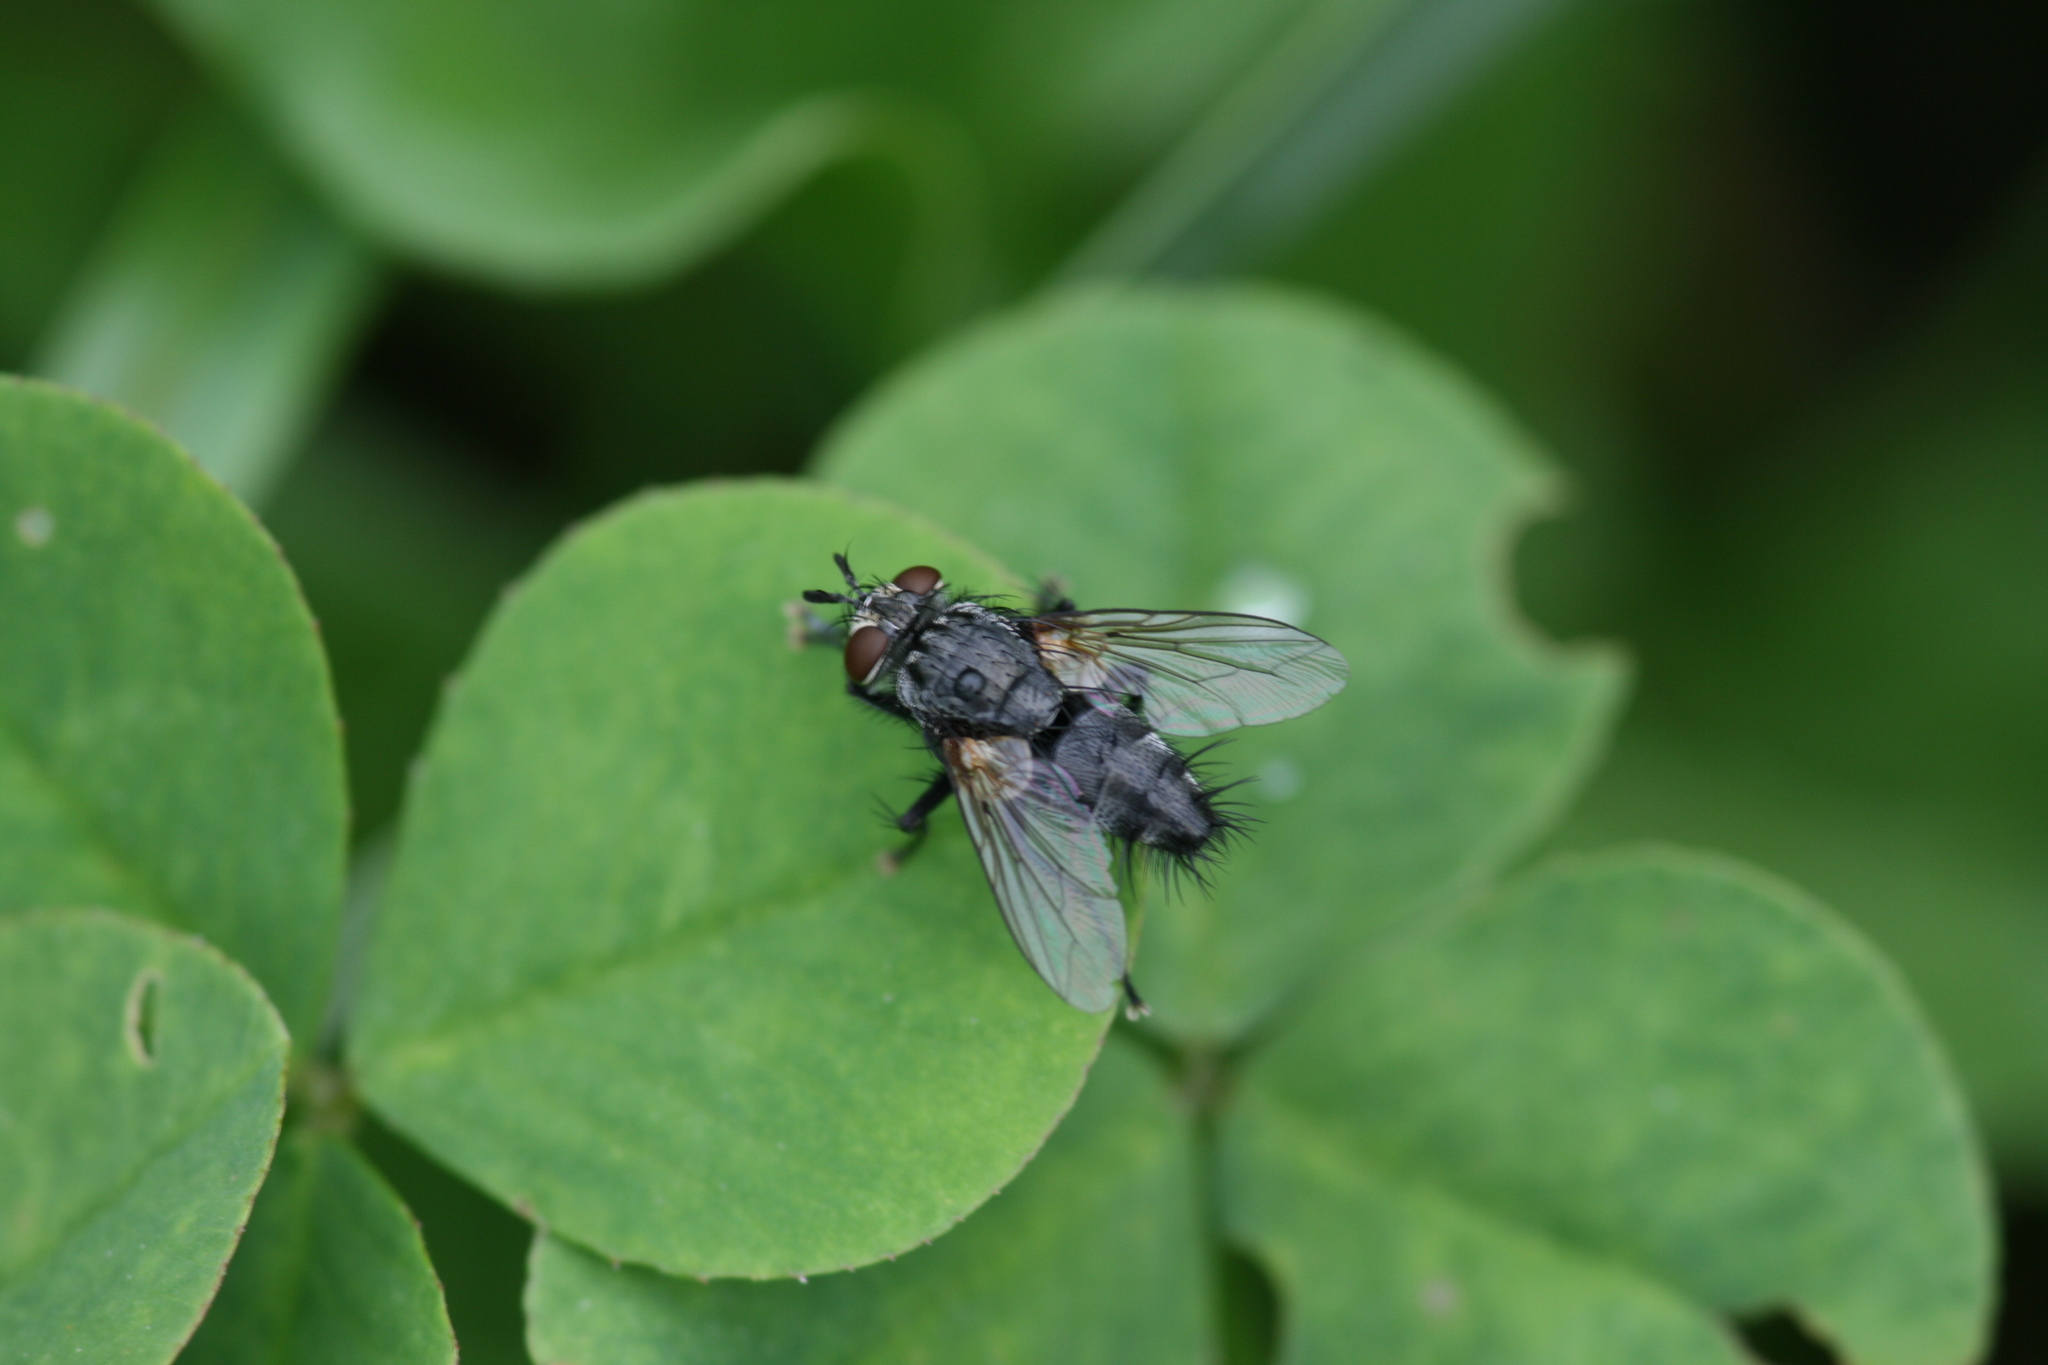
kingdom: Animalia
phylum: Arthropoda
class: Insecta
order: Diptera
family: Tachinidae
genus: Voria
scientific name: Voria ruralis
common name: Parasitic fly
